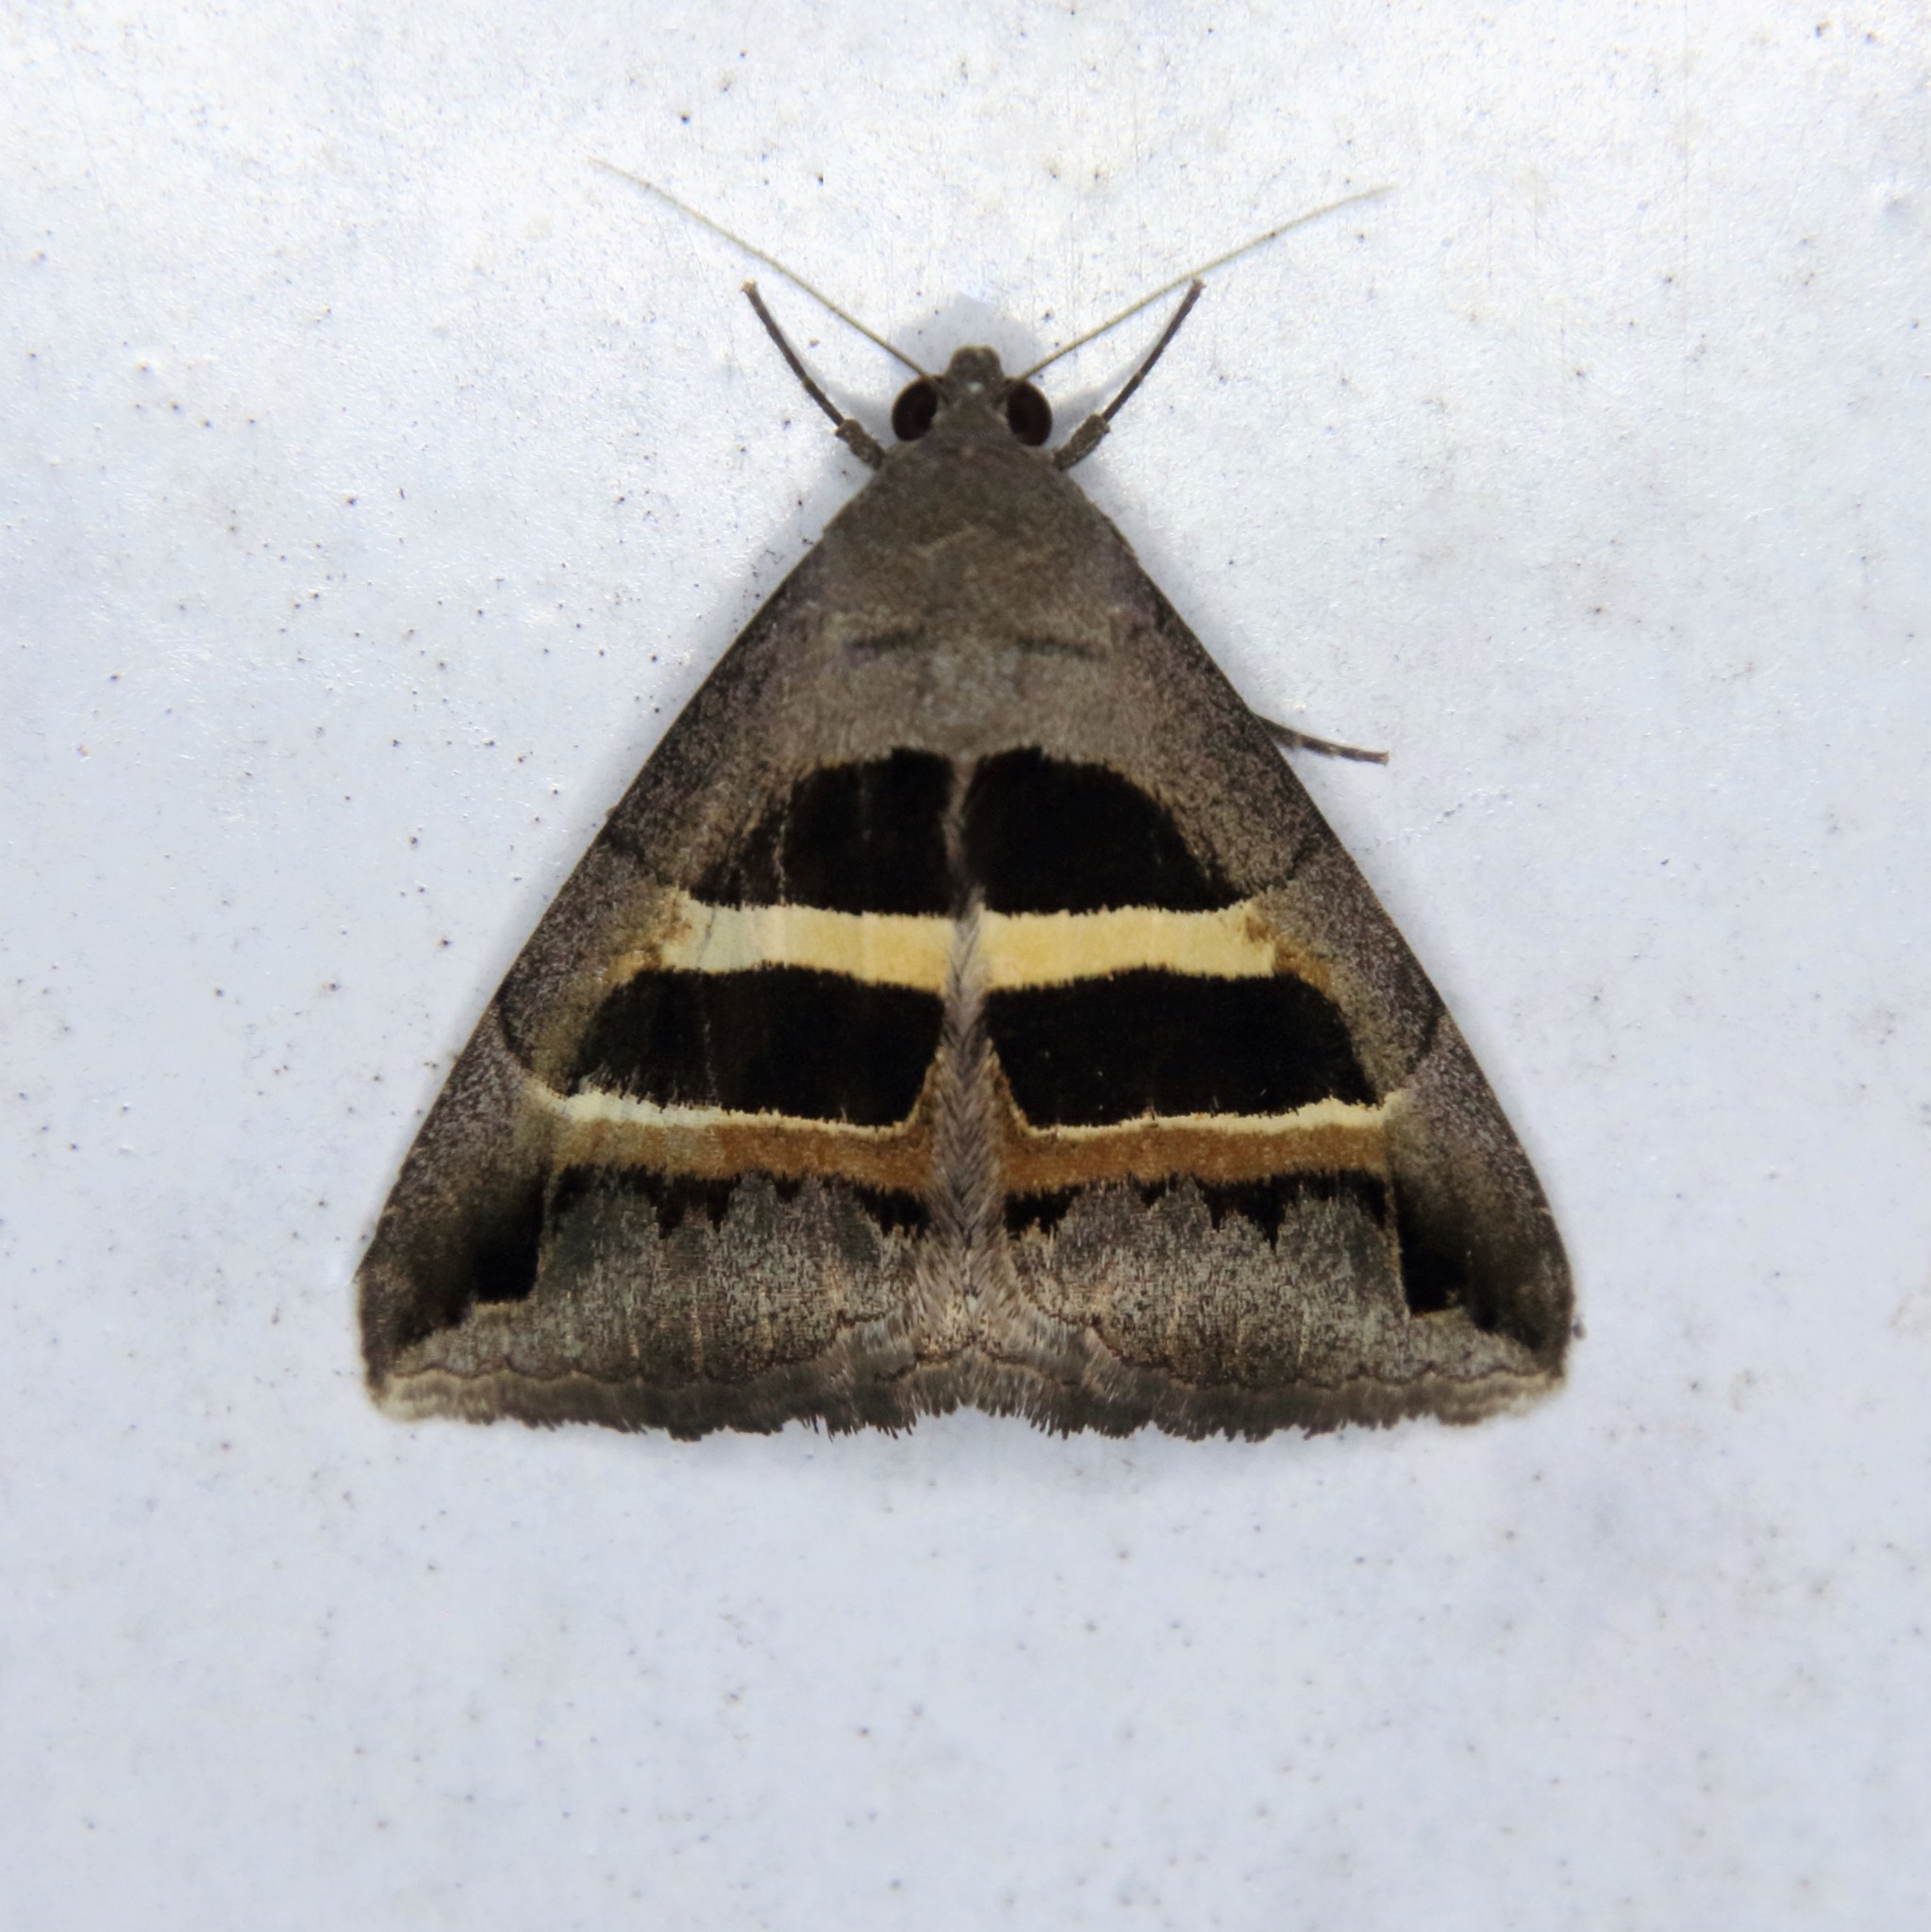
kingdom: Animalia
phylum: Arthropoda
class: Insecta
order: Lepidoptera
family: Erebidae
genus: Grammodes
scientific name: Grammodes geometrica
